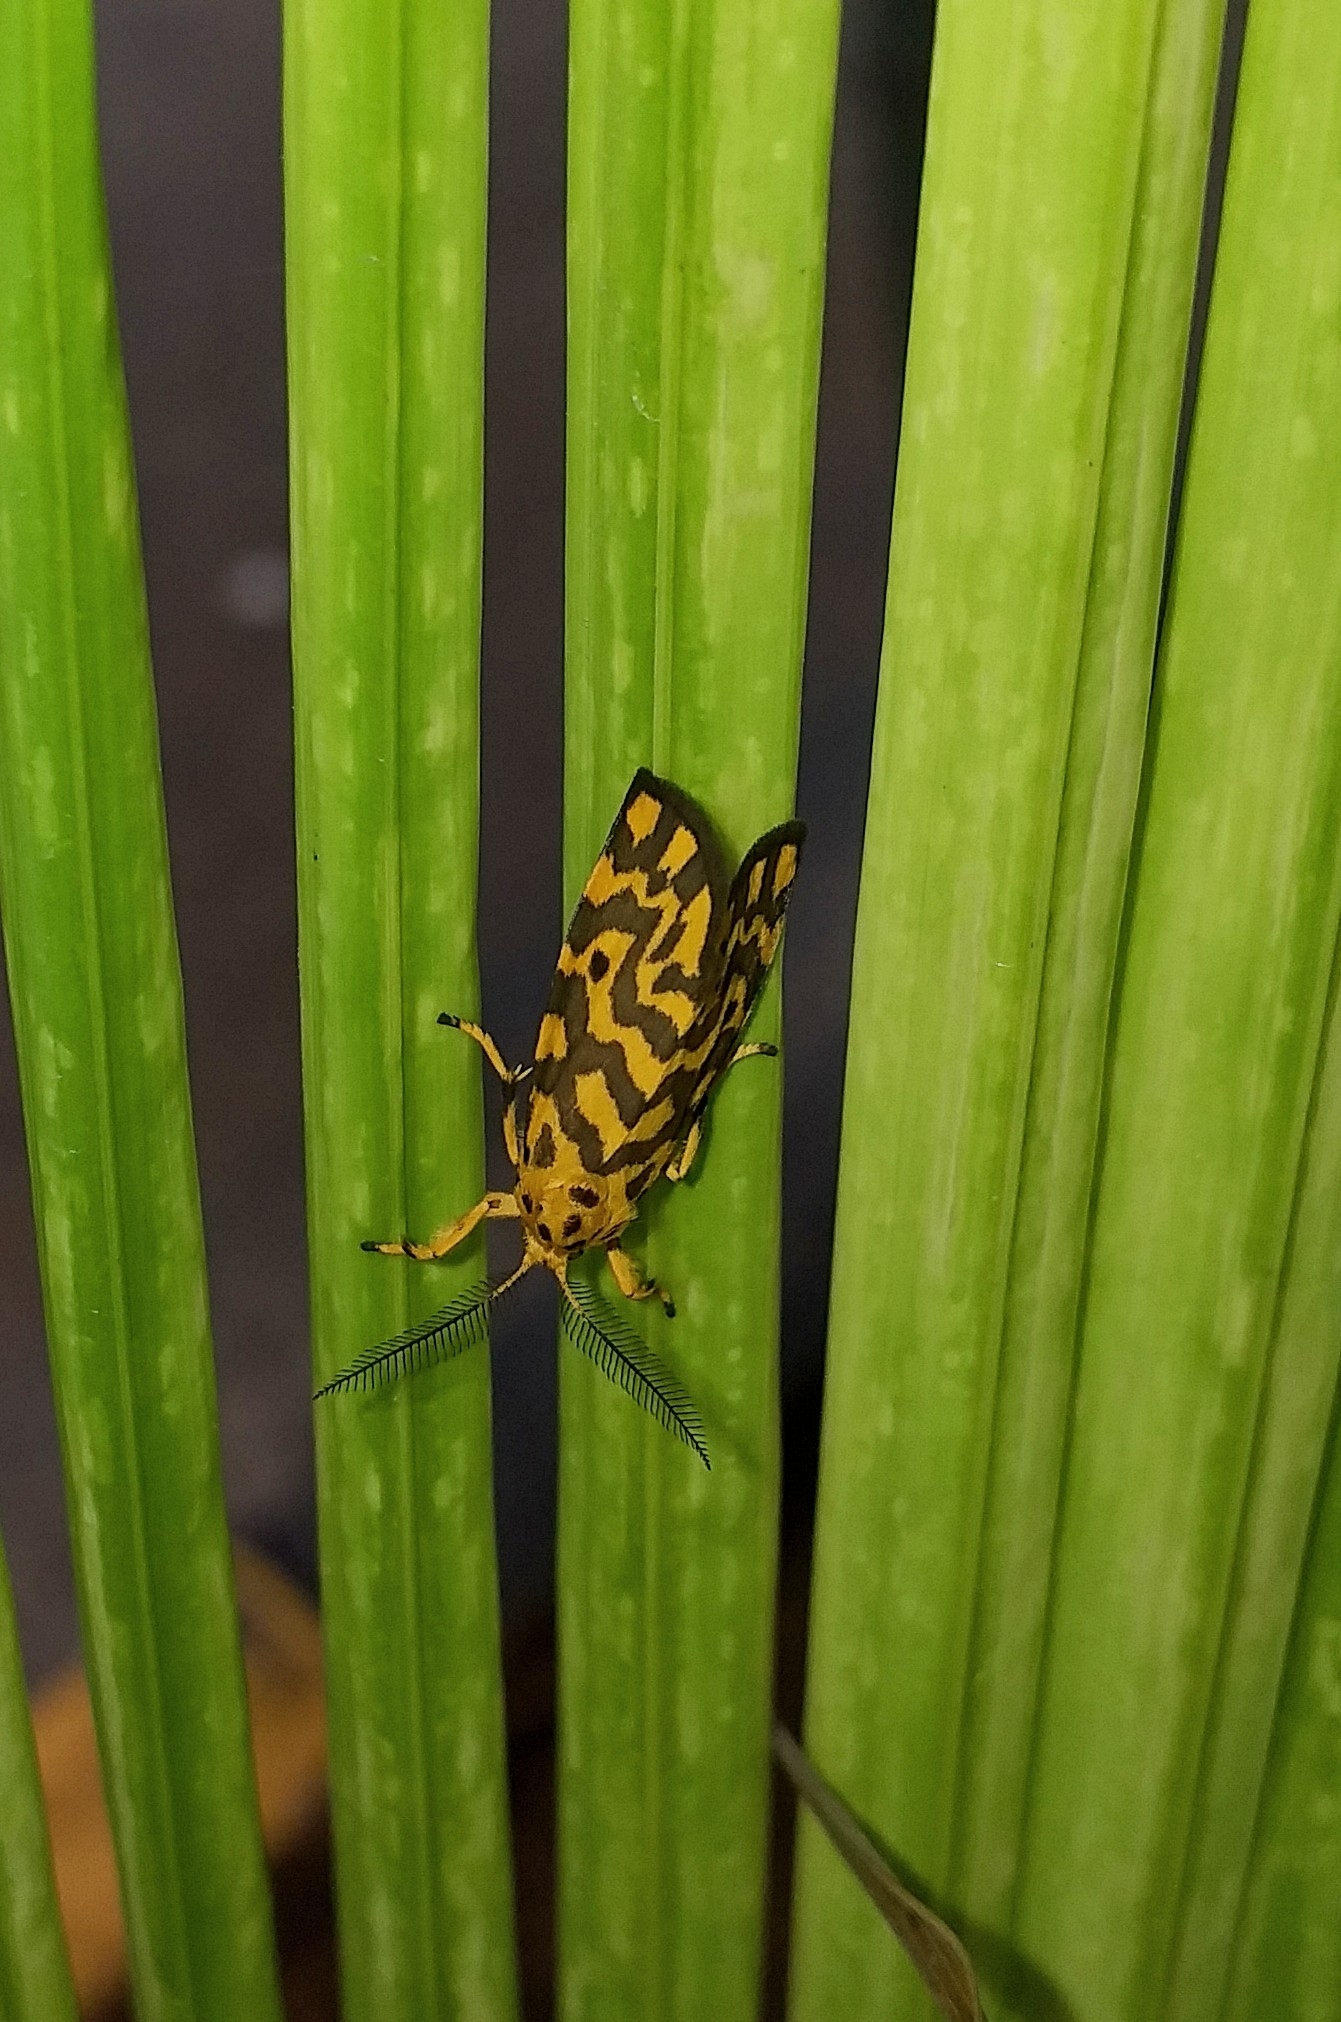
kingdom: Animalia
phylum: Arthropoda
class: Insecta
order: Lepidoptera
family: Erebidae
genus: Nepita
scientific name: Nepita conferta
